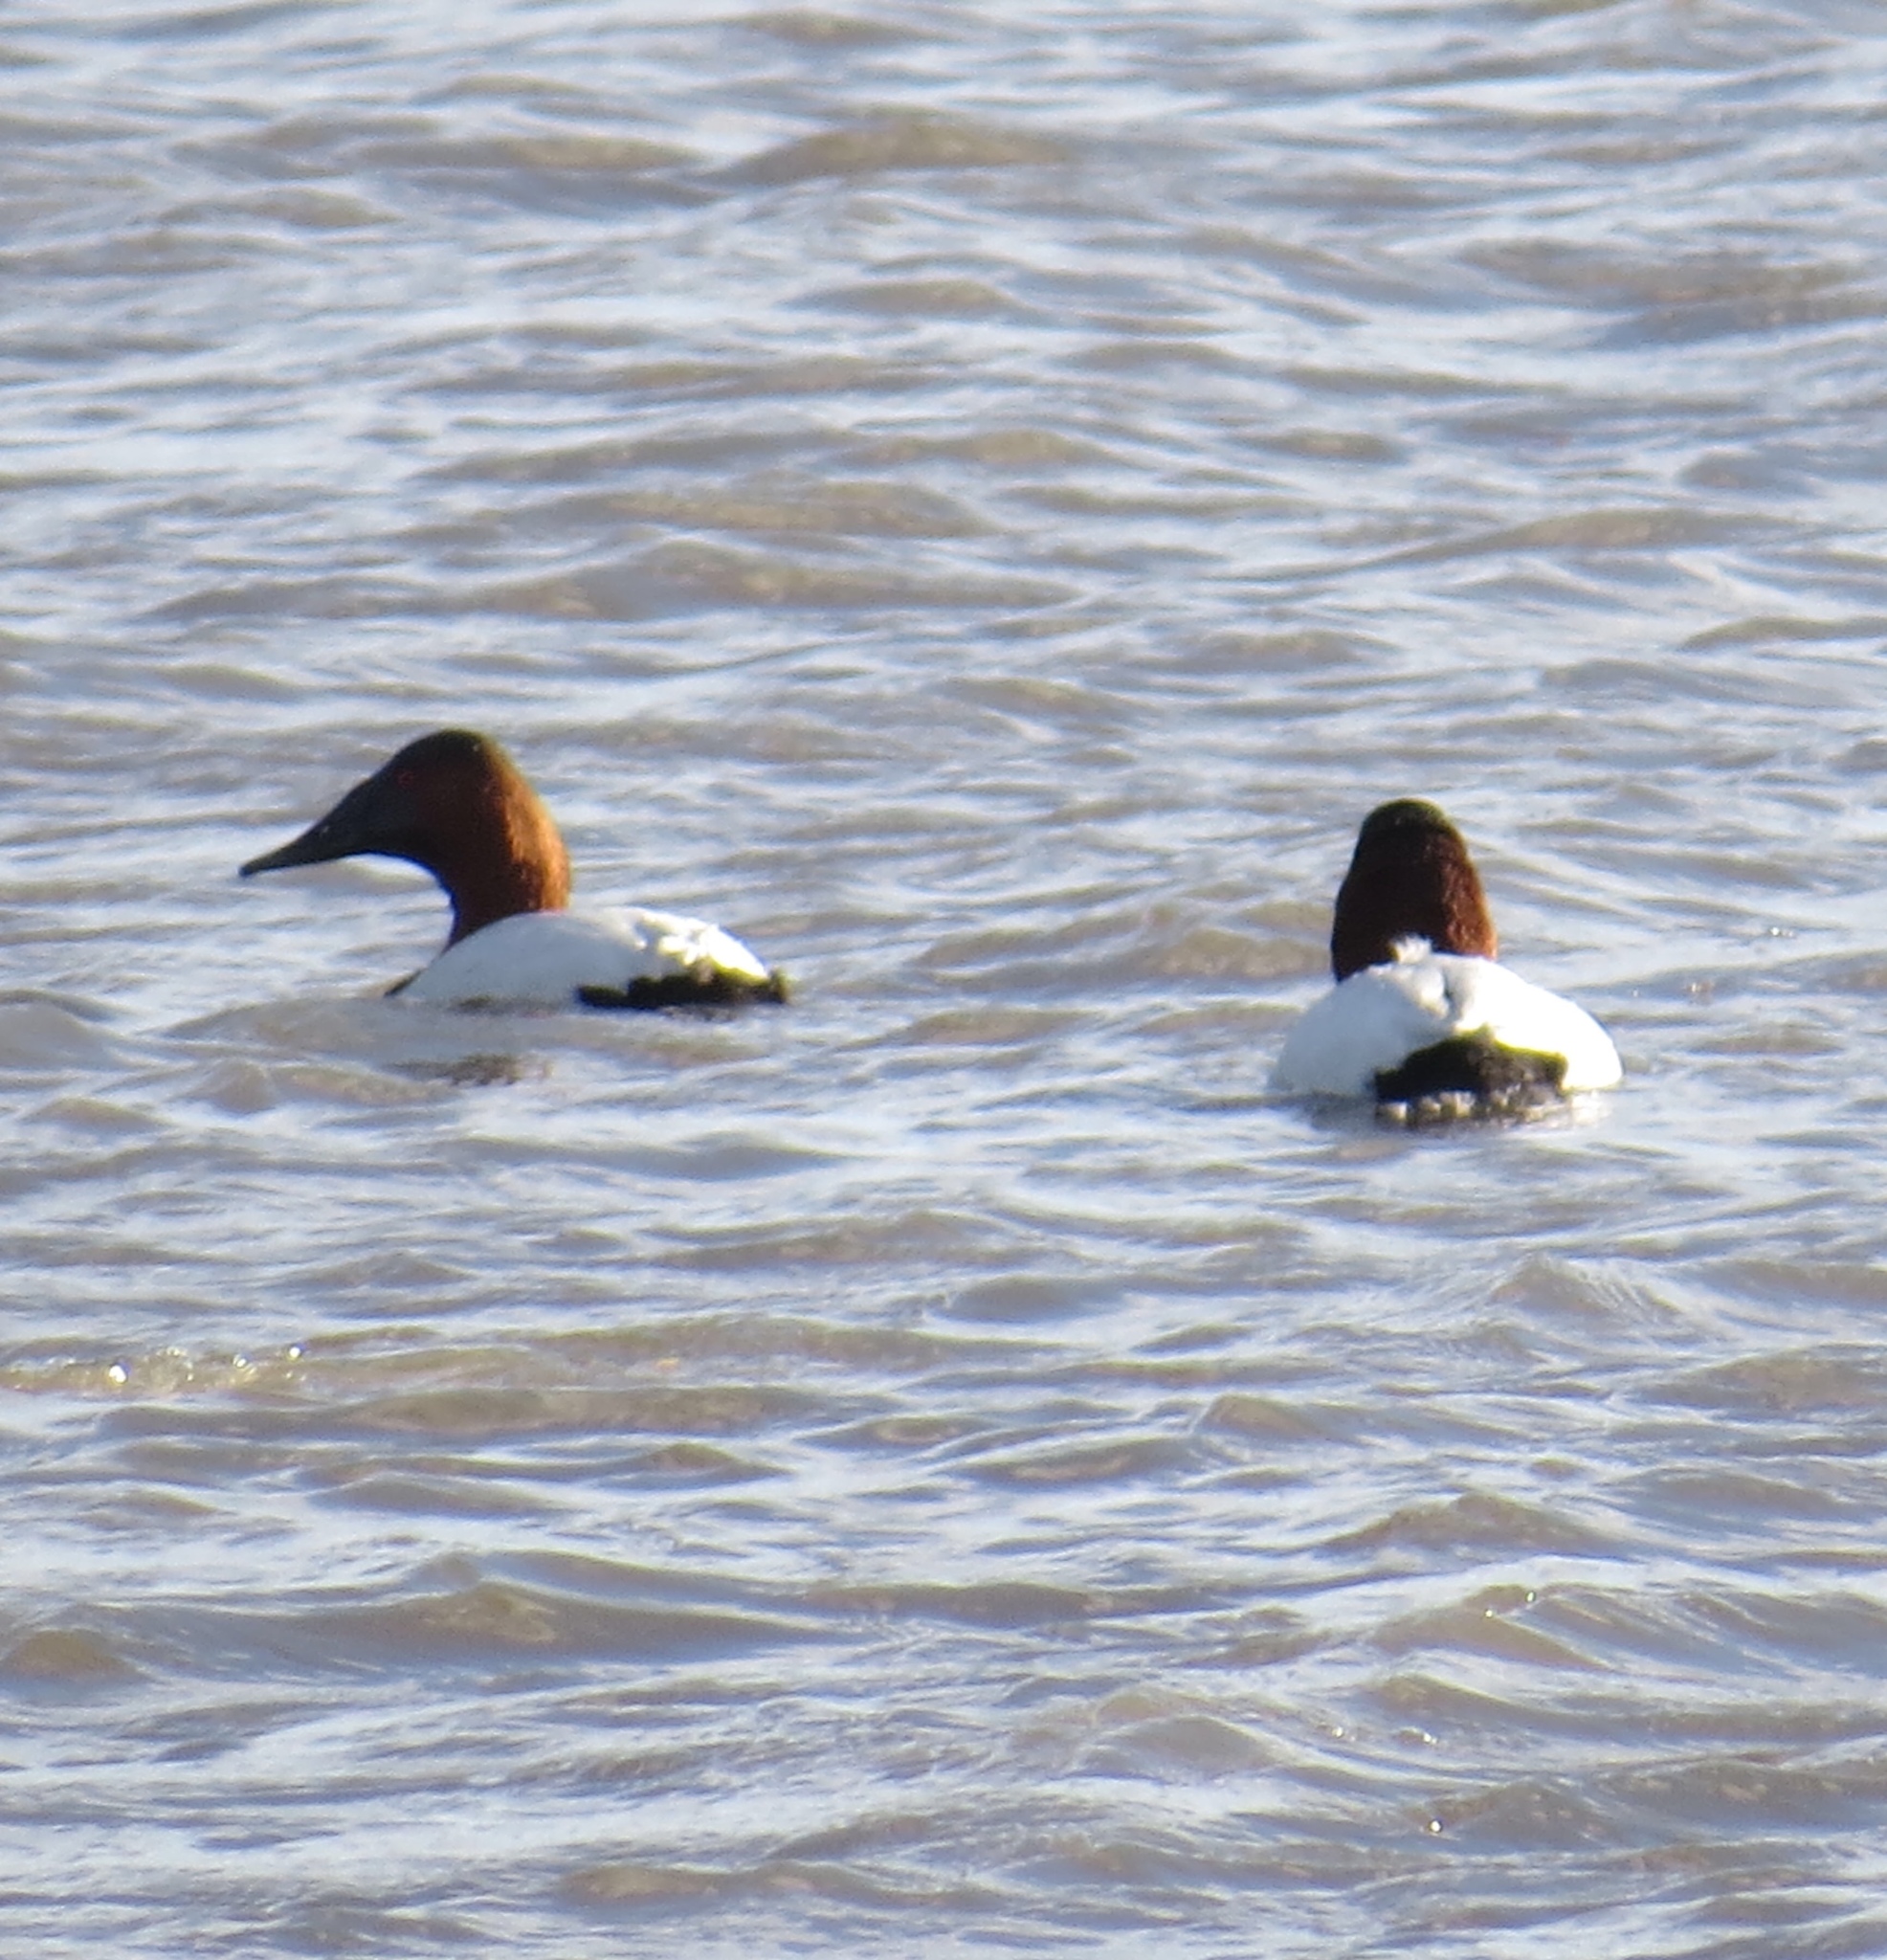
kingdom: Animalia
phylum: Chordata
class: Aves
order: Anseriformes
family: Anatidae
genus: Aythya
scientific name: Aythya valisineria
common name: Canvasback
